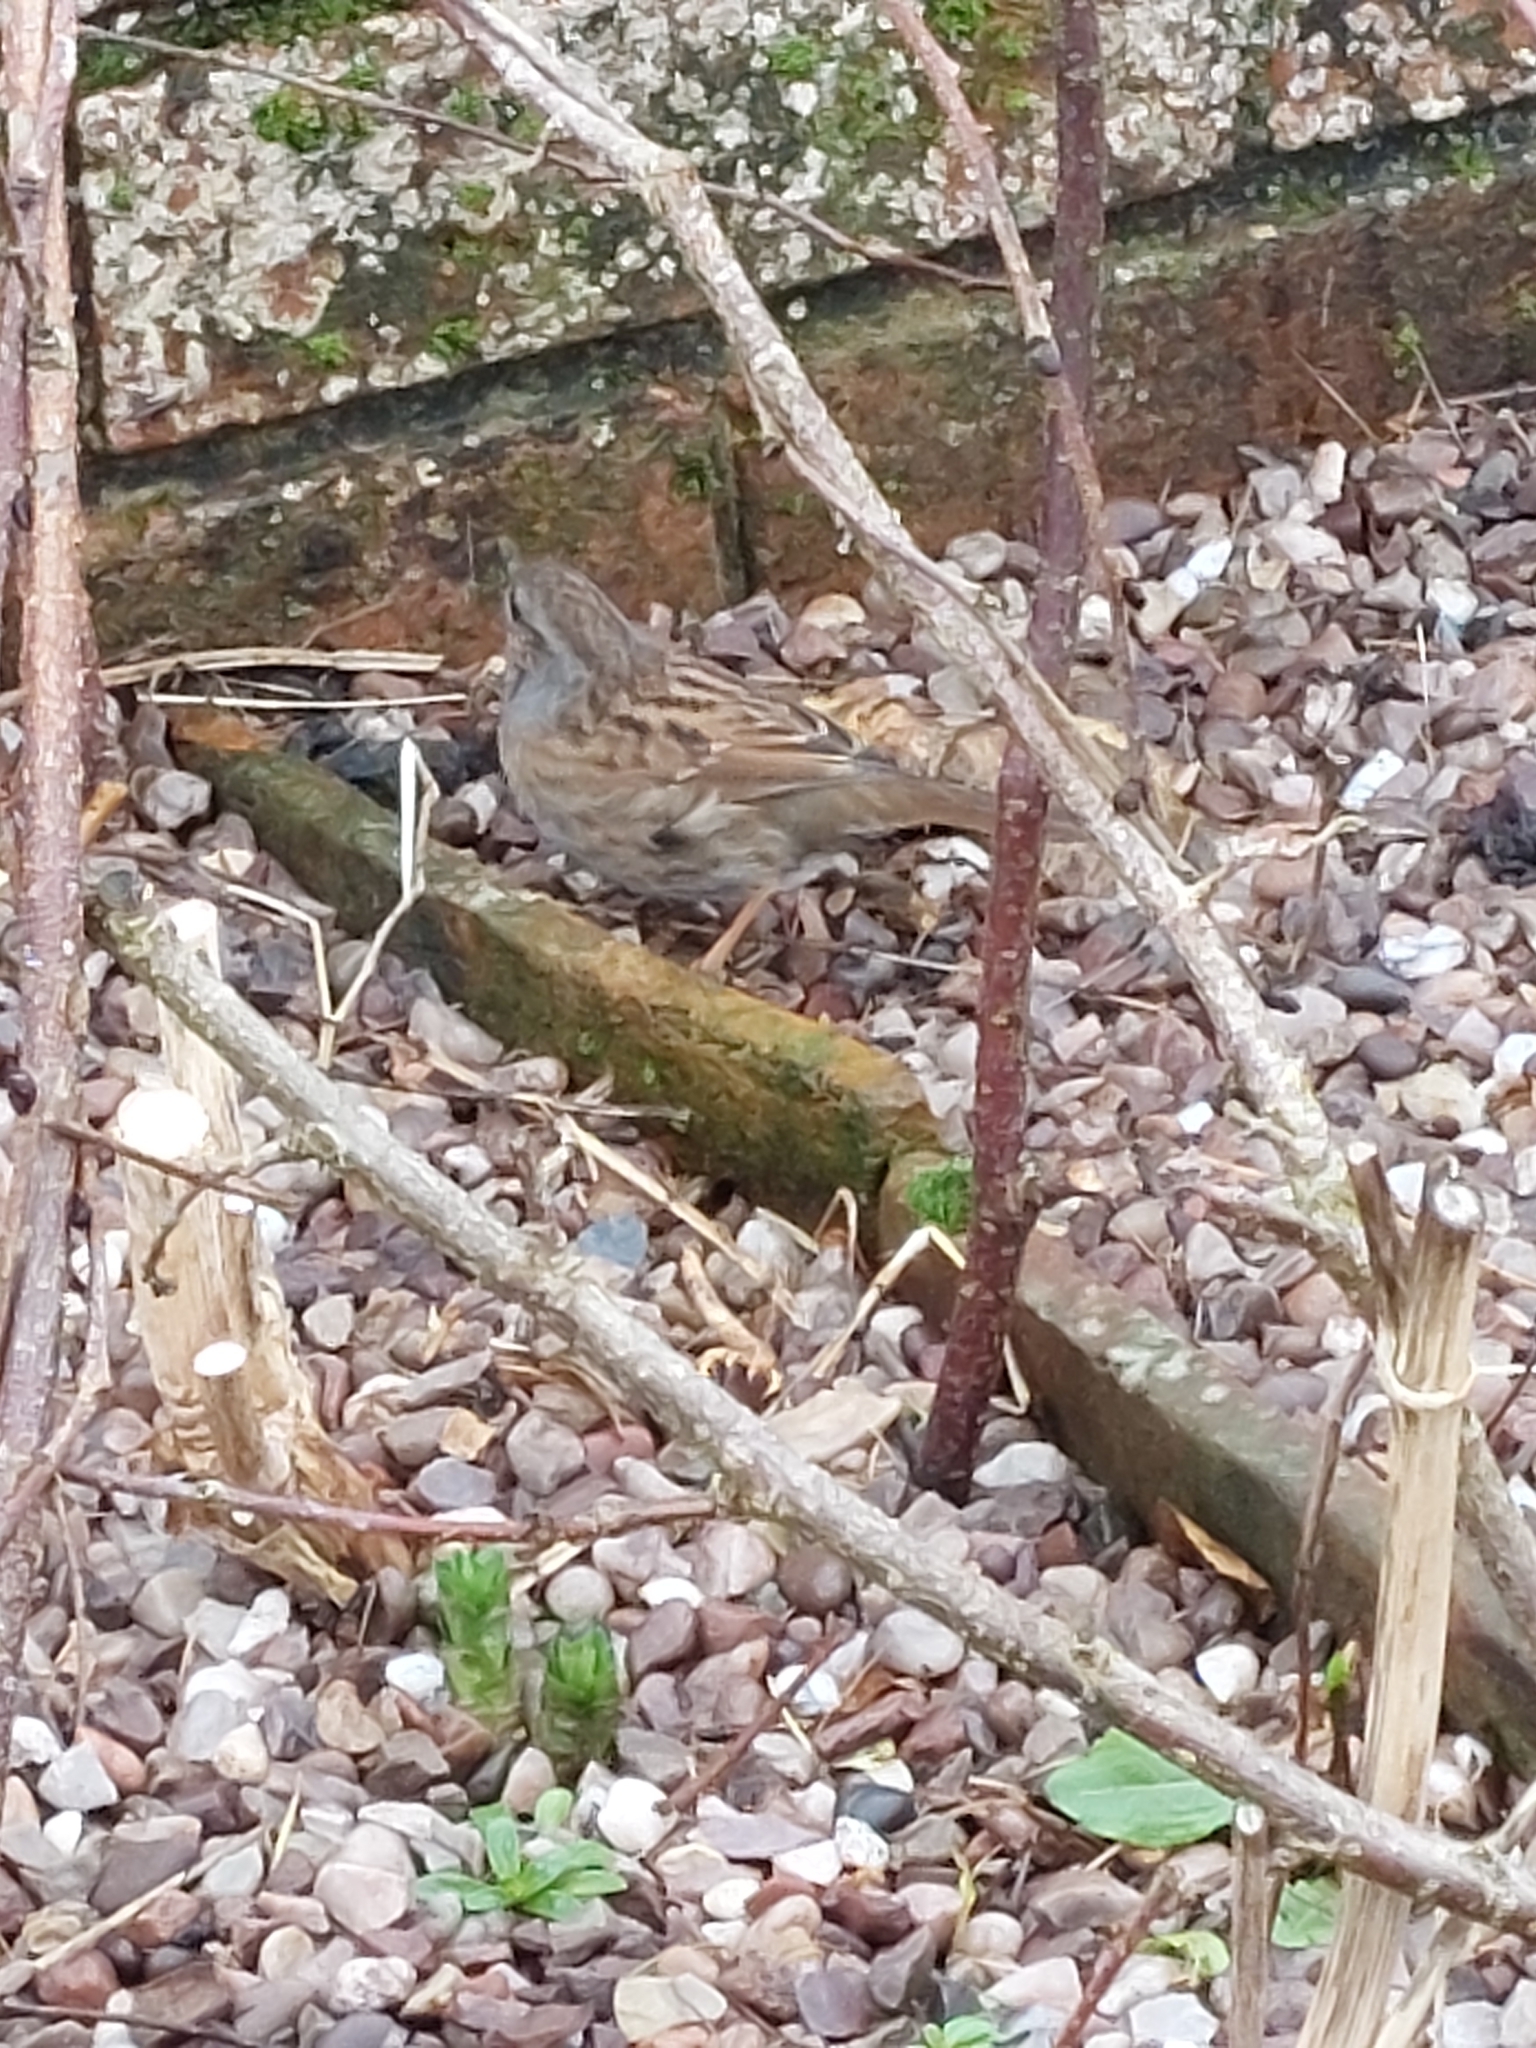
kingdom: Animalia
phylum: Chordata
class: Aves
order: Passeriformes
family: Prunellidae
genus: Prunella
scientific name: Prunella modularis
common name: Dunnock
